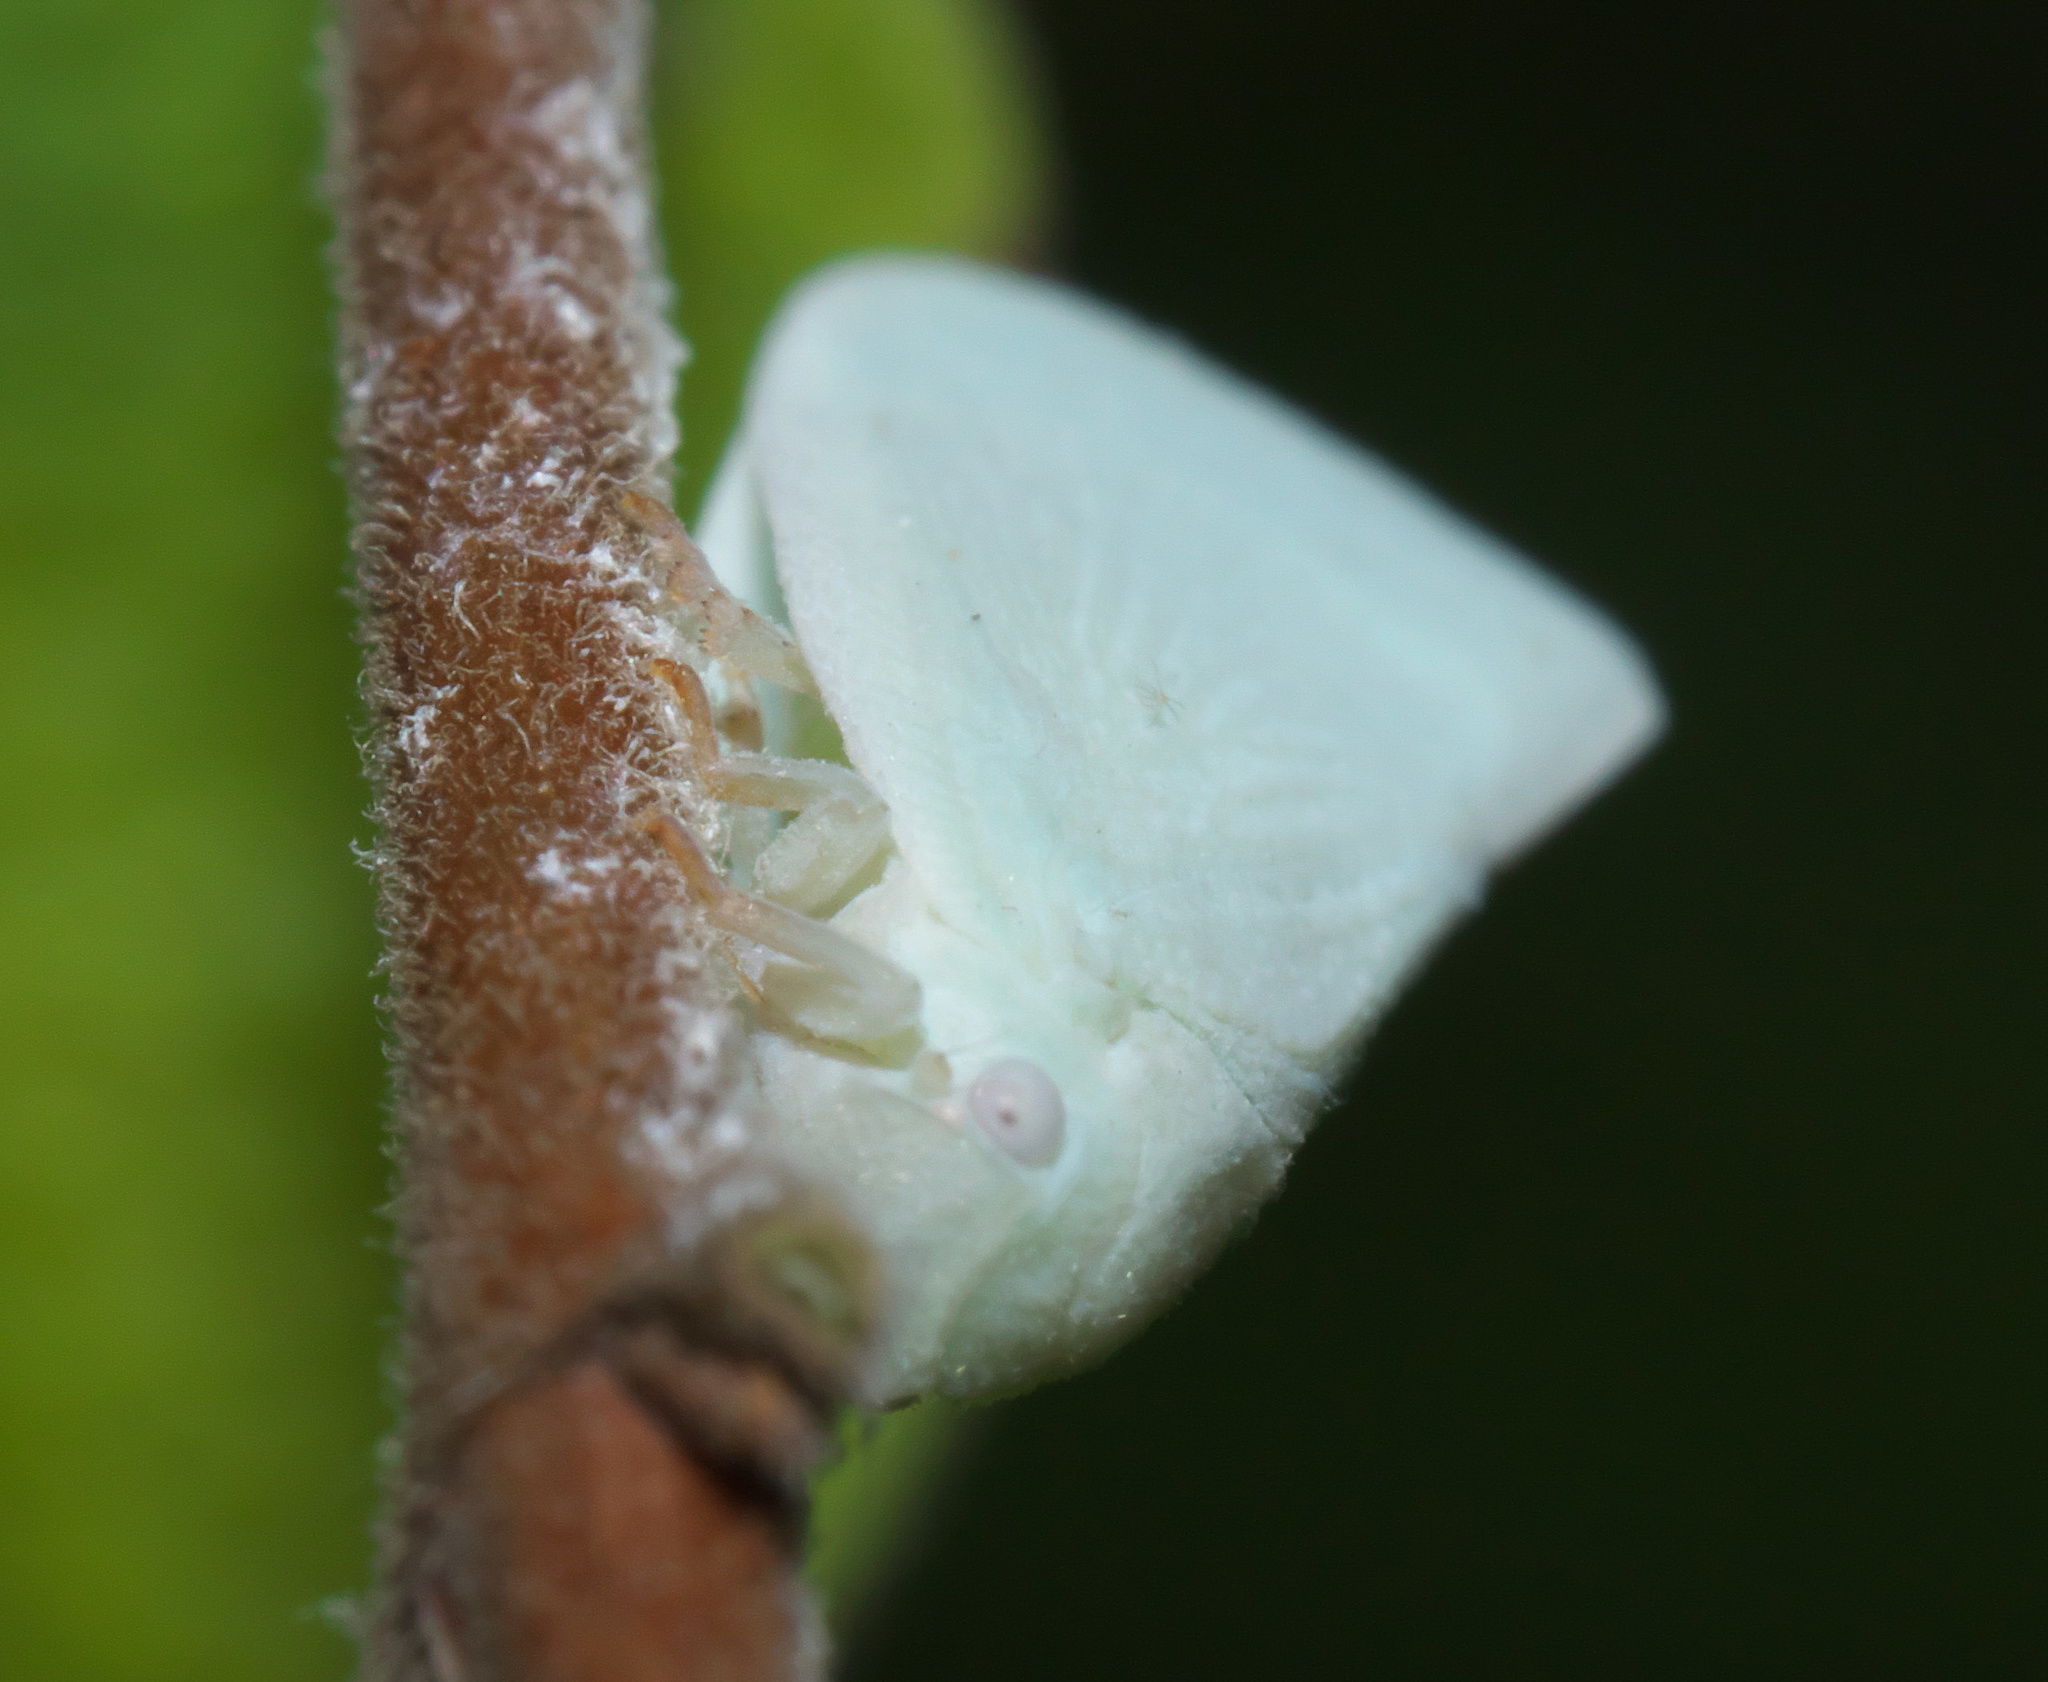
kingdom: Animalia
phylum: Arthropoda
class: Insecta
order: Hemiptera
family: Flatidae
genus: Flatormenis
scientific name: Flatormenis proxima
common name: Northern flatid planthopper
